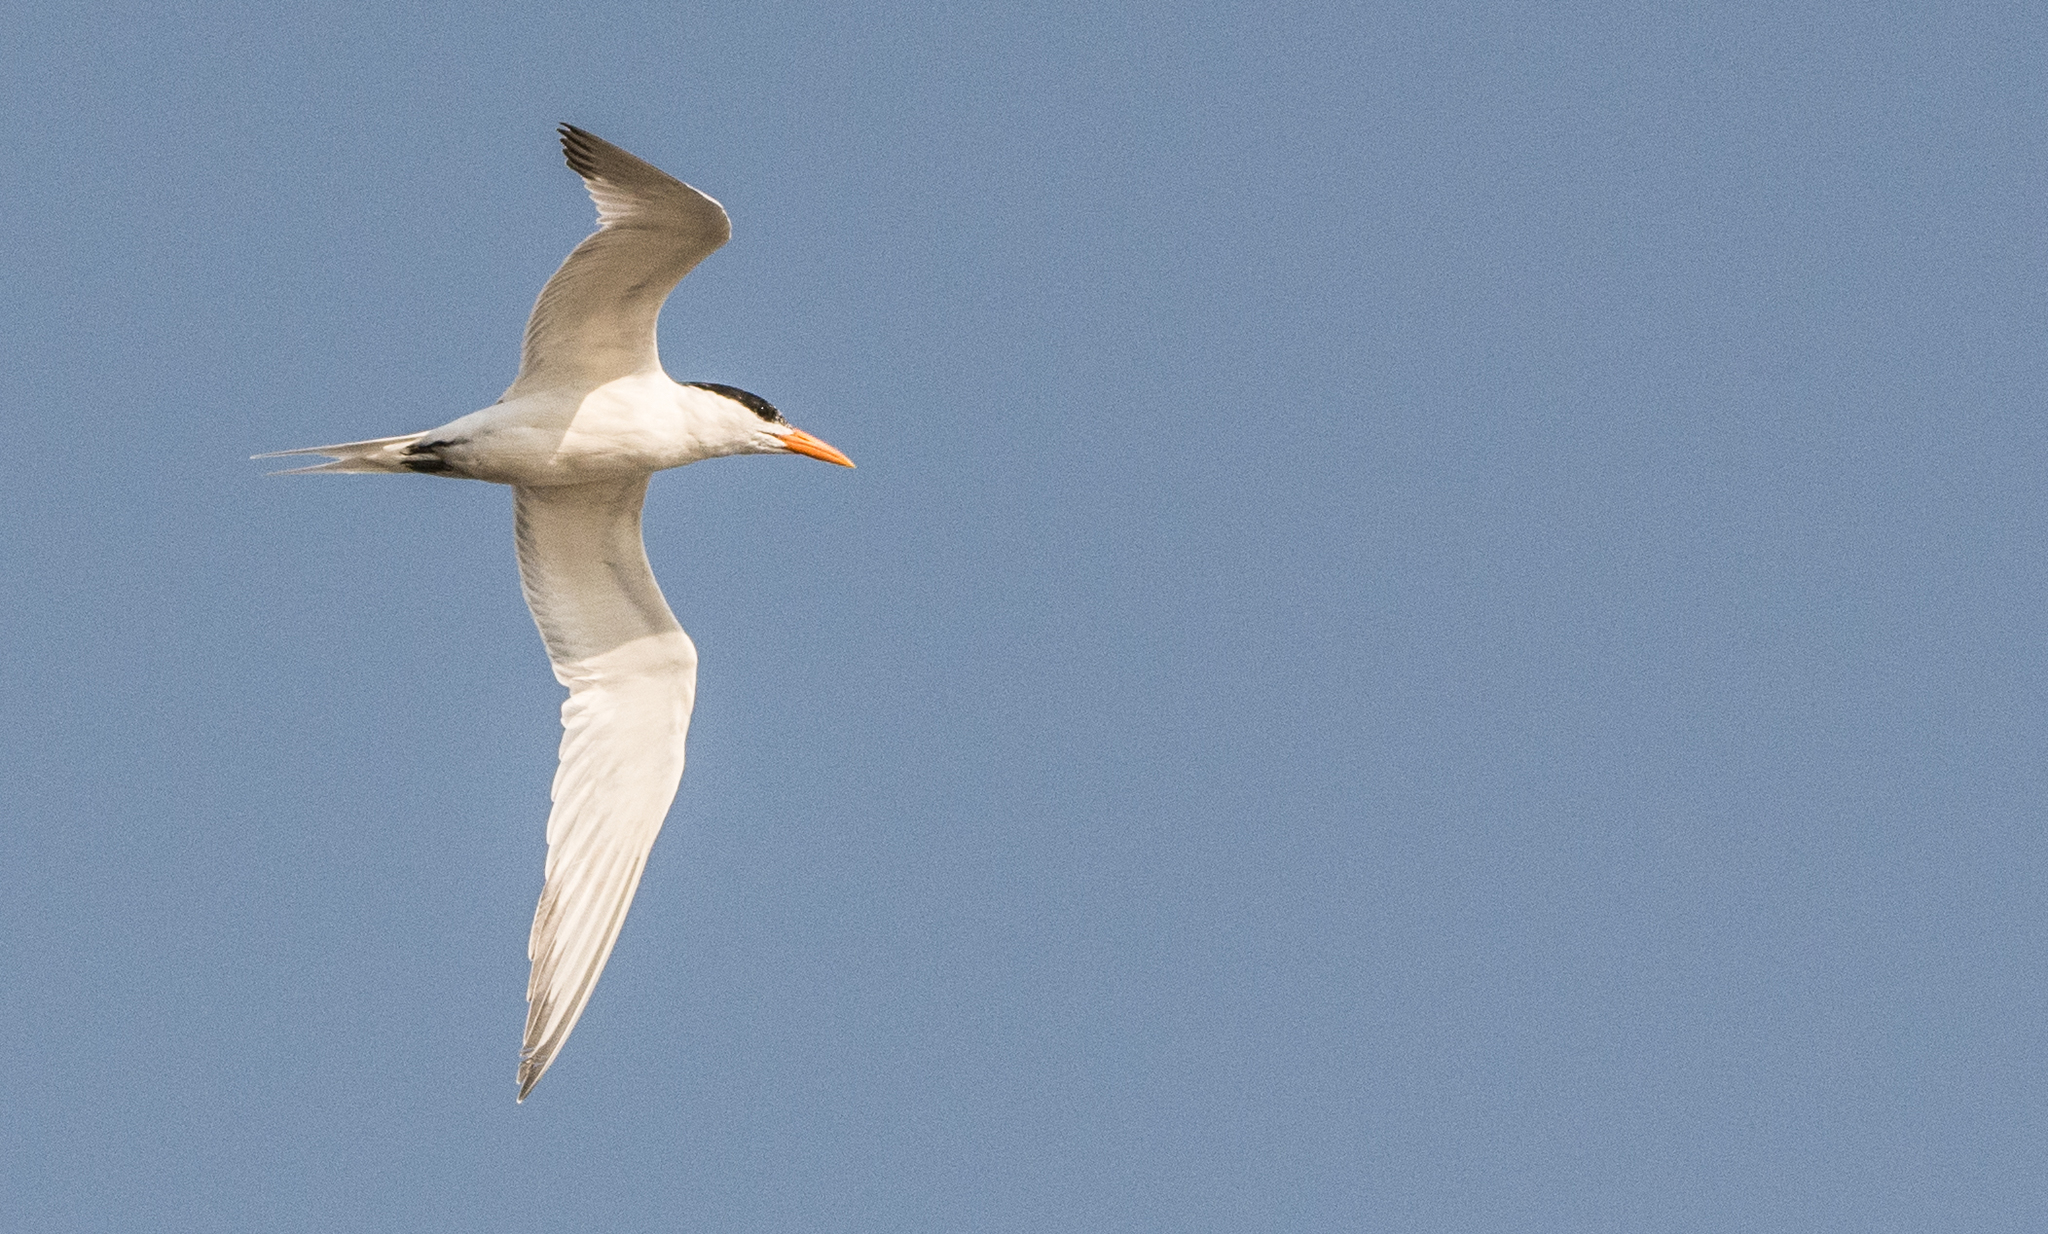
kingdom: Animalia
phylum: Chordata
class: Aves
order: Charadriiformes
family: Laridae
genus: Thalasseus
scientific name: Thalasseus maximus
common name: Royal tern
